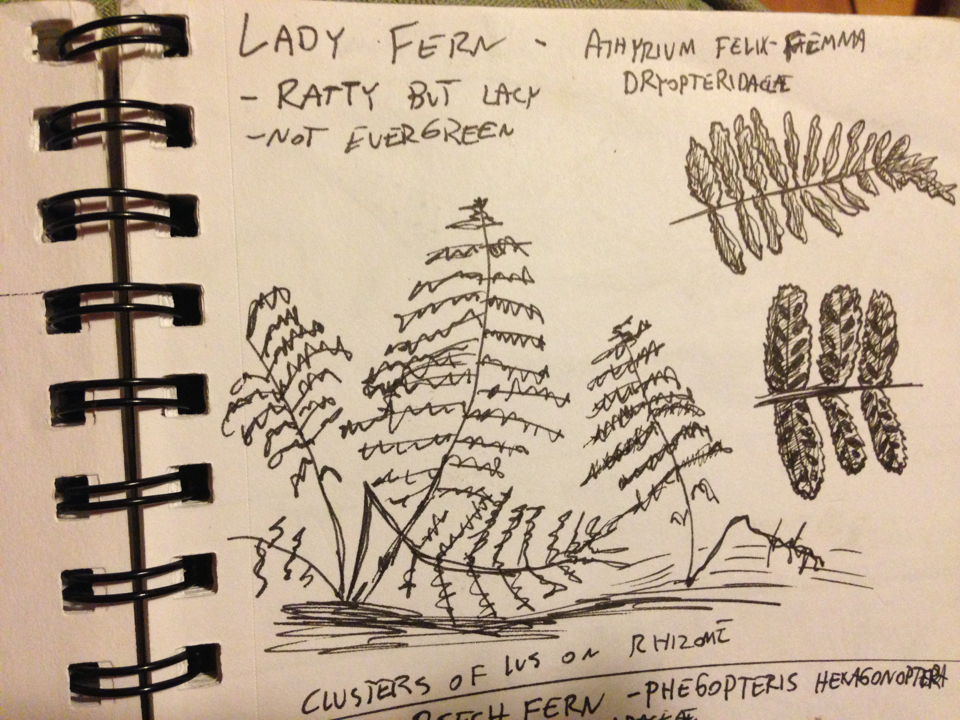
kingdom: Plantae
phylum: Tracheophyta
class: Polypodiopsida
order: Polypodiales
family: Athyriaceae
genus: Athyrium
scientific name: Athyrium angustum
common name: Northern lady fern
